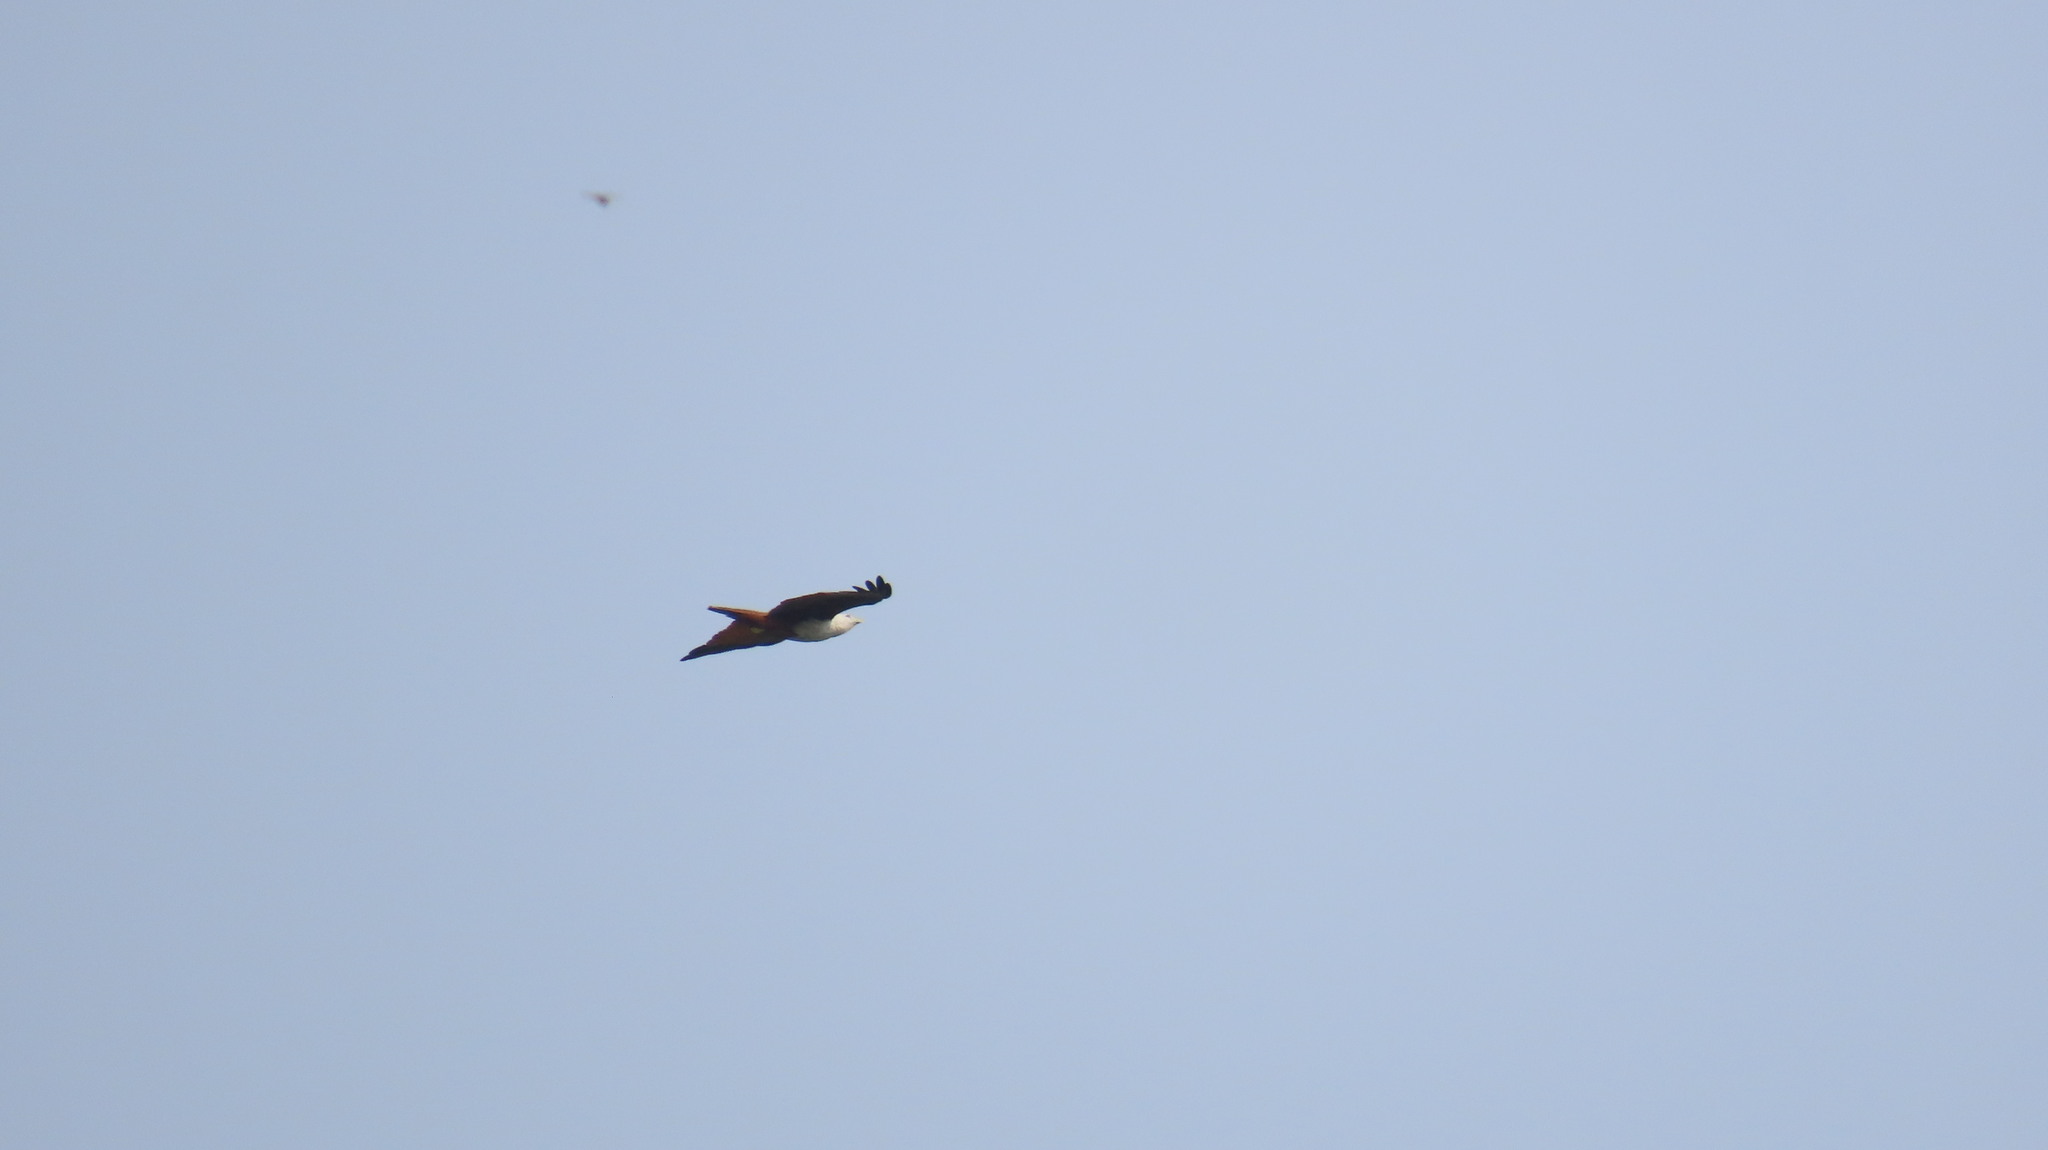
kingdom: Animalia
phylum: Chordata
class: Aves
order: Accipitriformes
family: Accipitridae
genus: Haliastur
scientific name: Haliastur indus
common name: Brahminy kite
